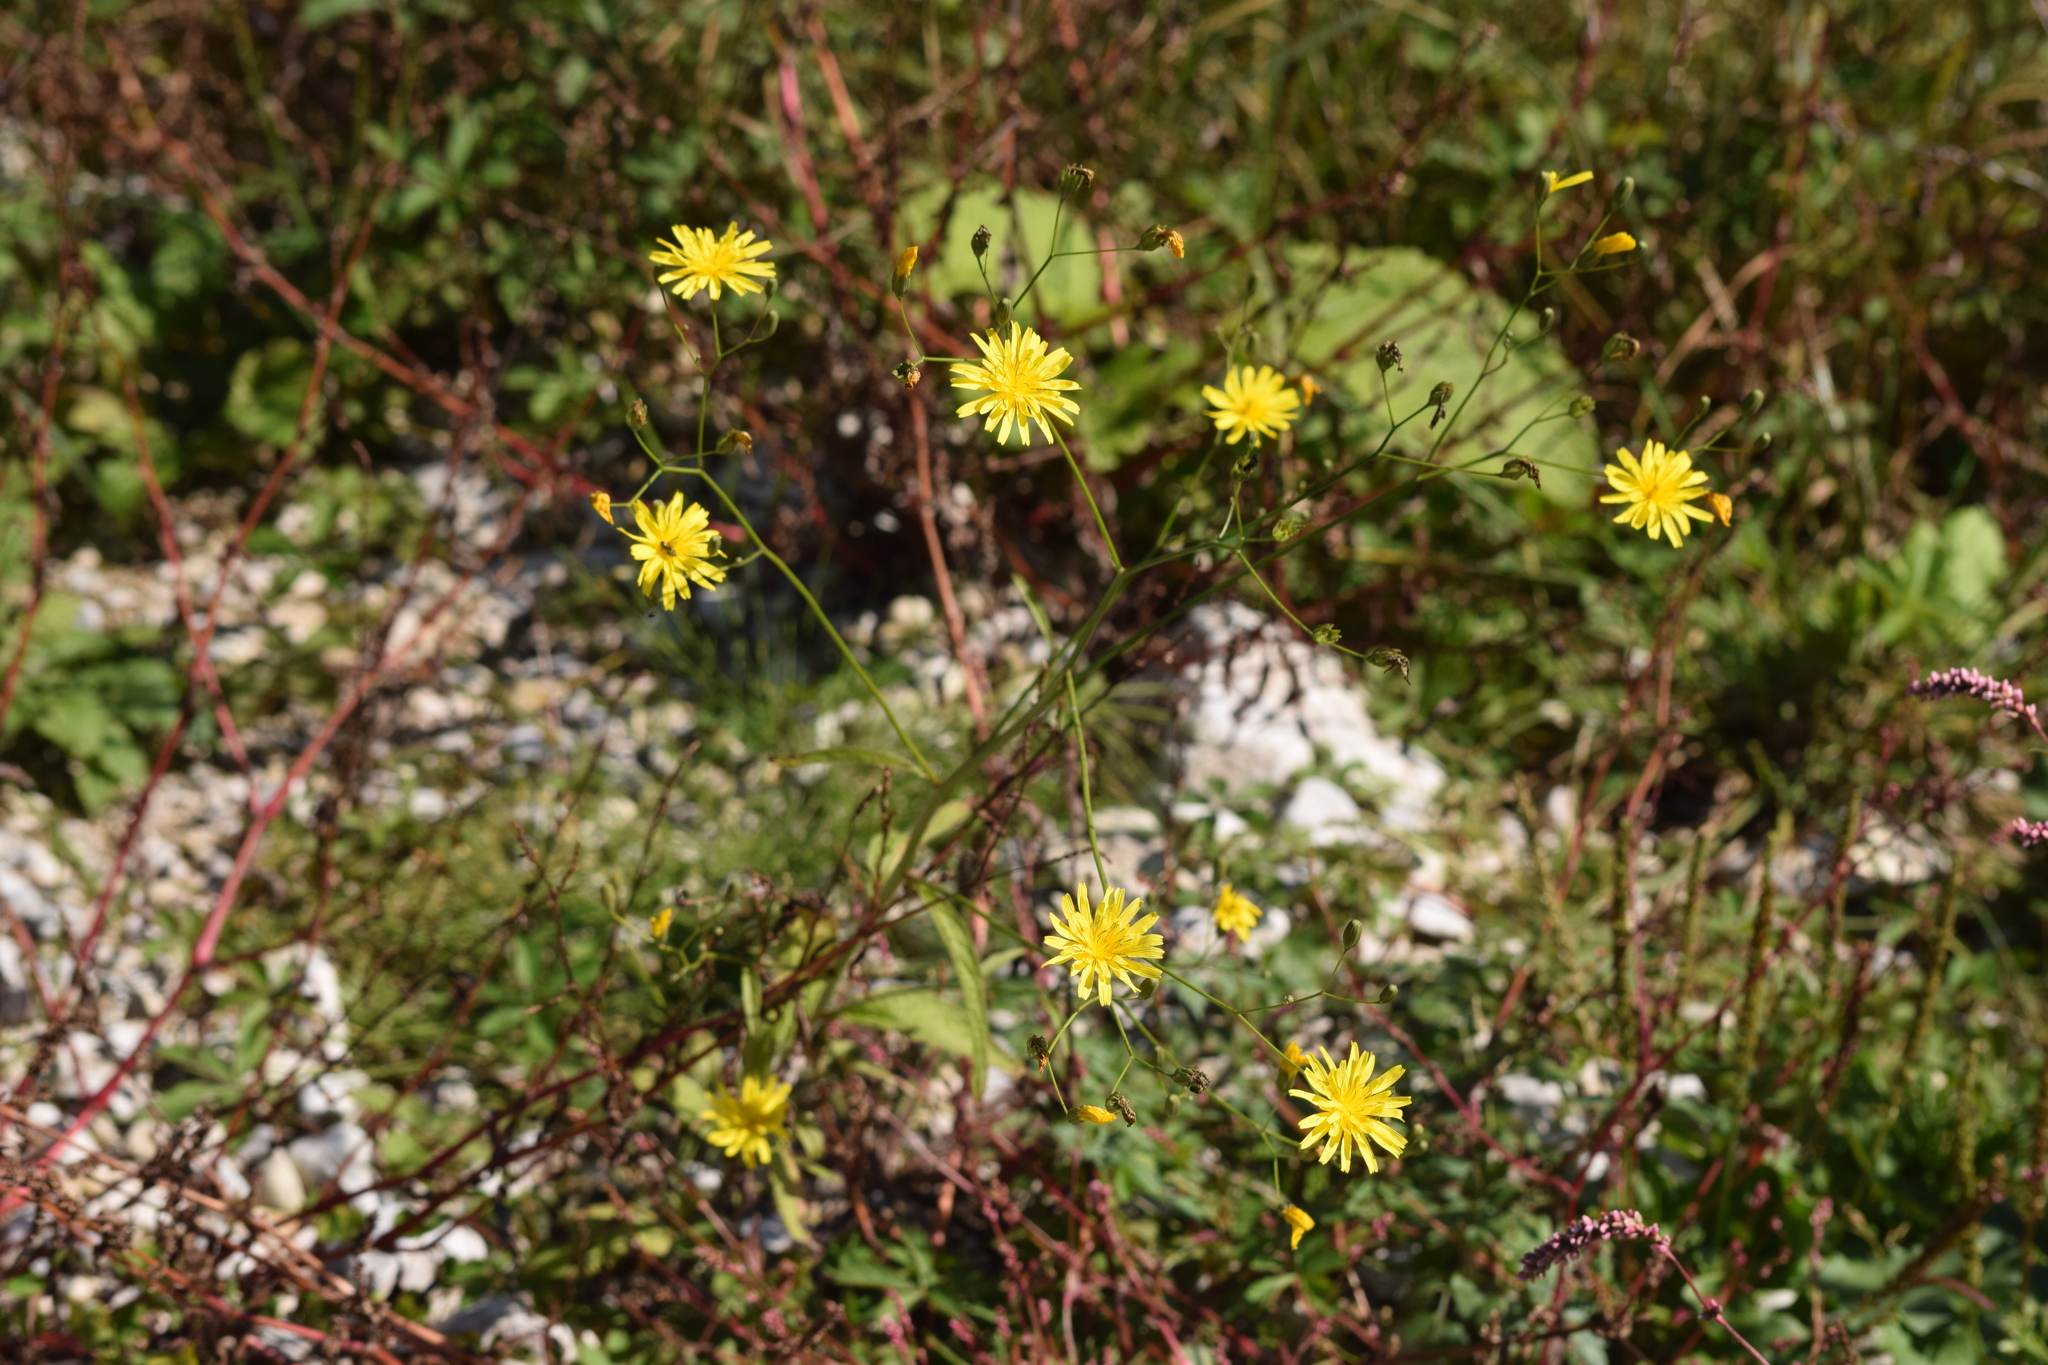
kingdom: Plantae
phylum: Tracheophyta
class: Magnoliopsida
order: Asterales
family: Asteraceae
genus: Lapsana
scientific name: Lapsana communis
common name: Nipplewort
